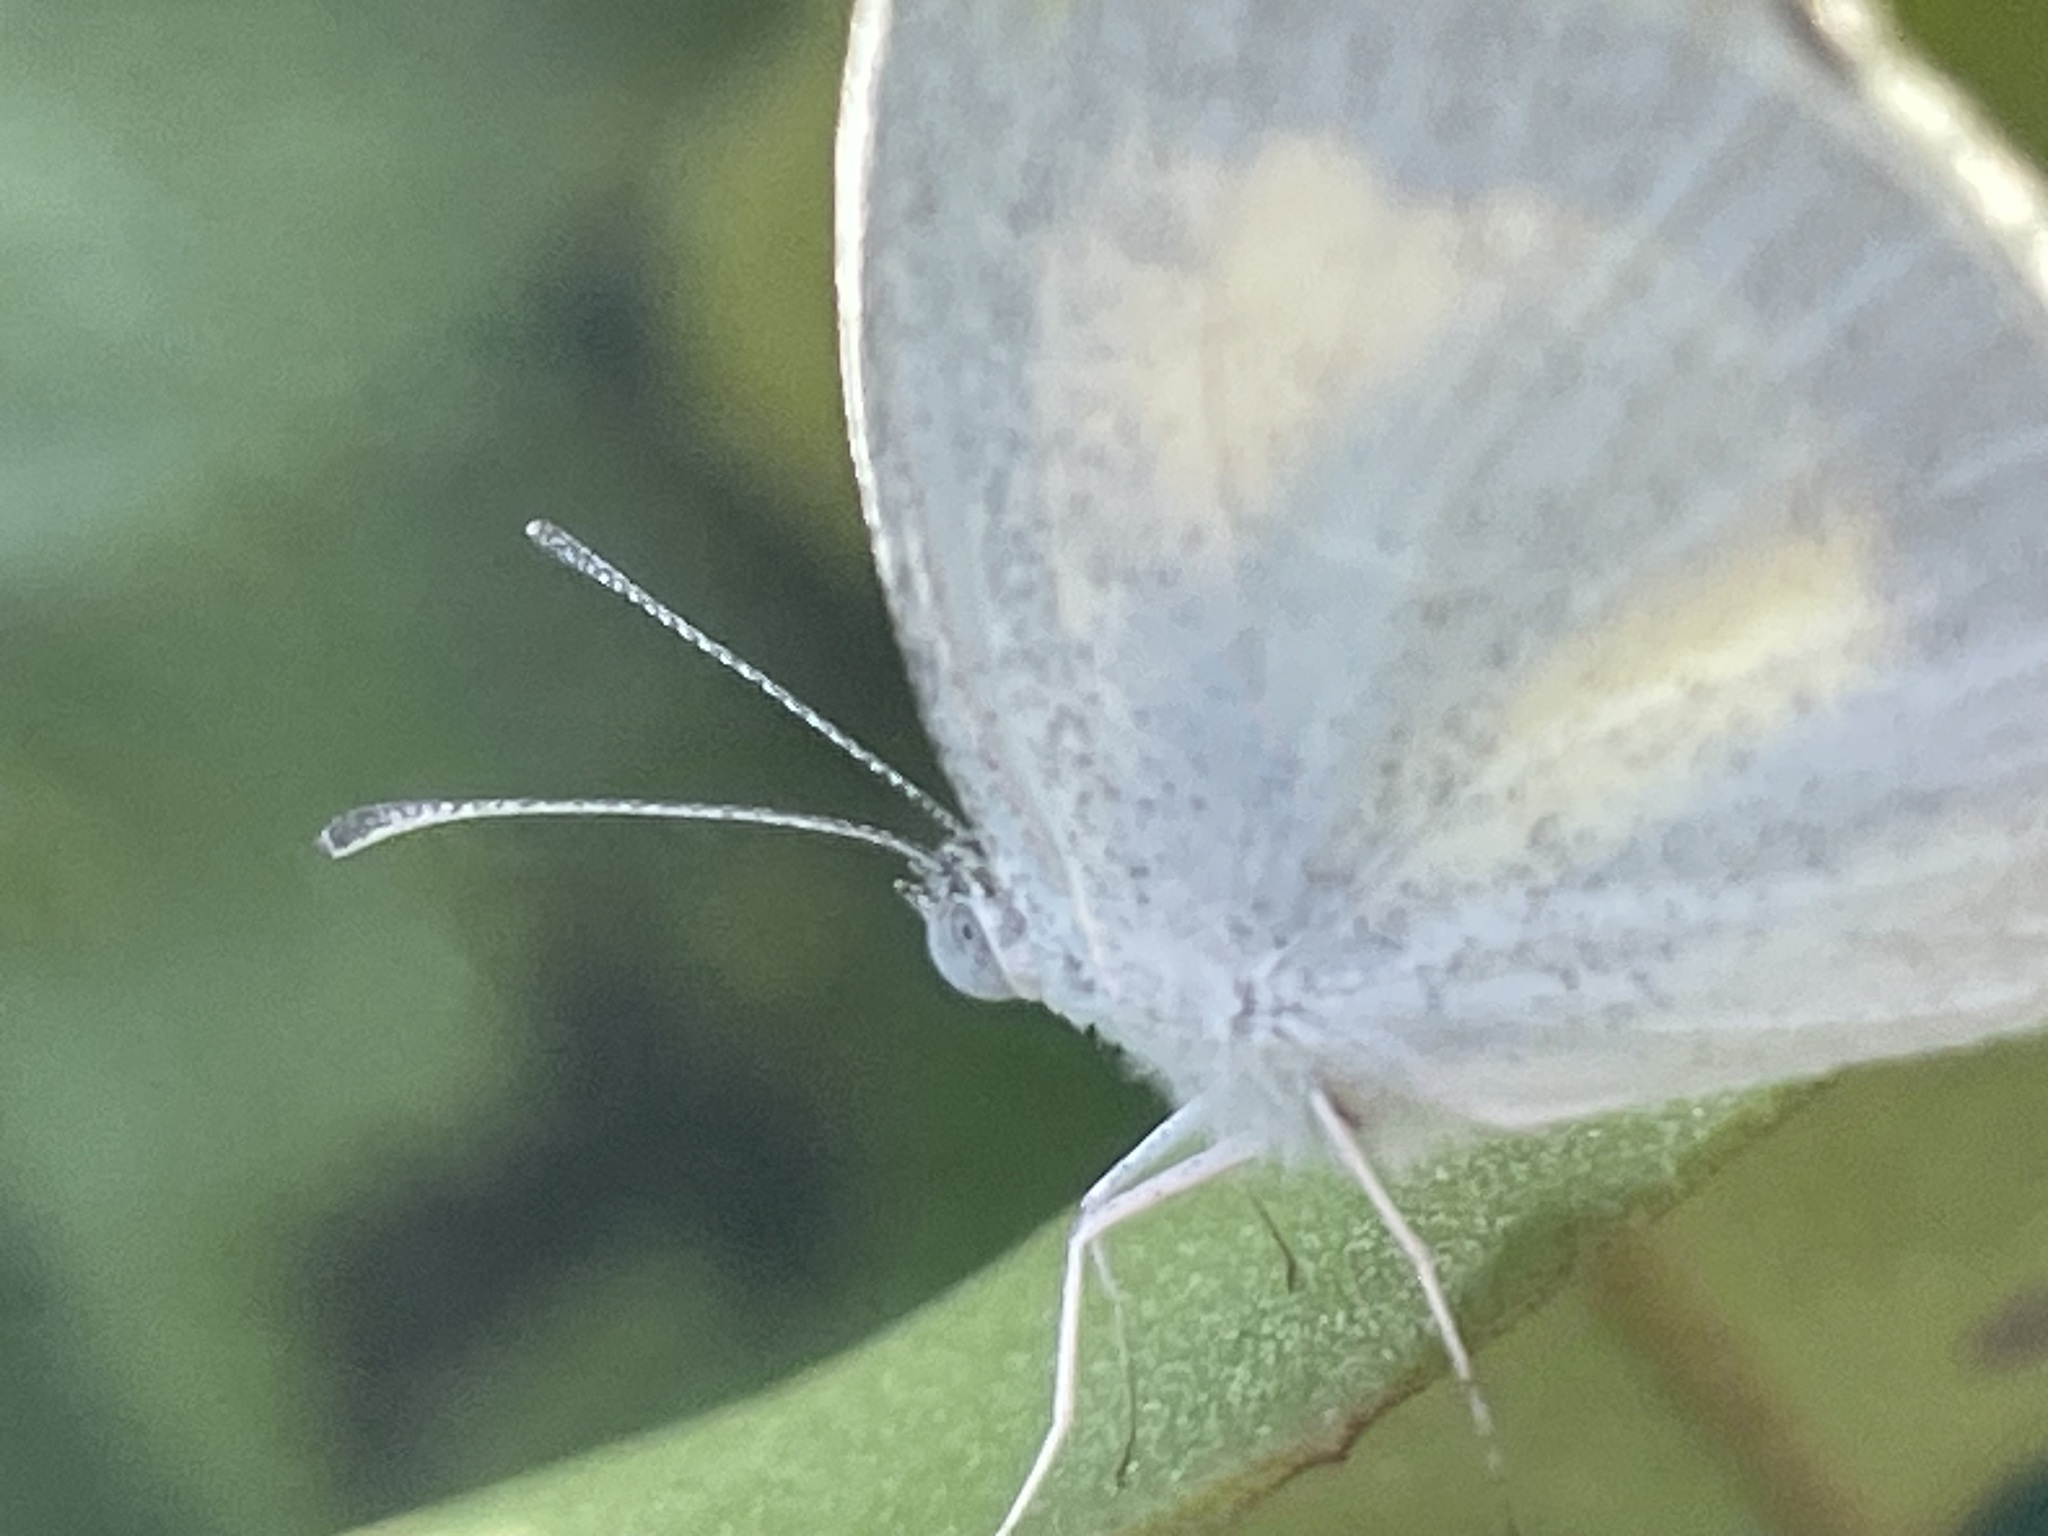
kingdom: Animalia
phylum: Arthropoda
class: Insecta
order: Lepidoptera
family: Pieridae
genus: Eurema
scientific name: Eurema daira
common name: Barred sulphur
